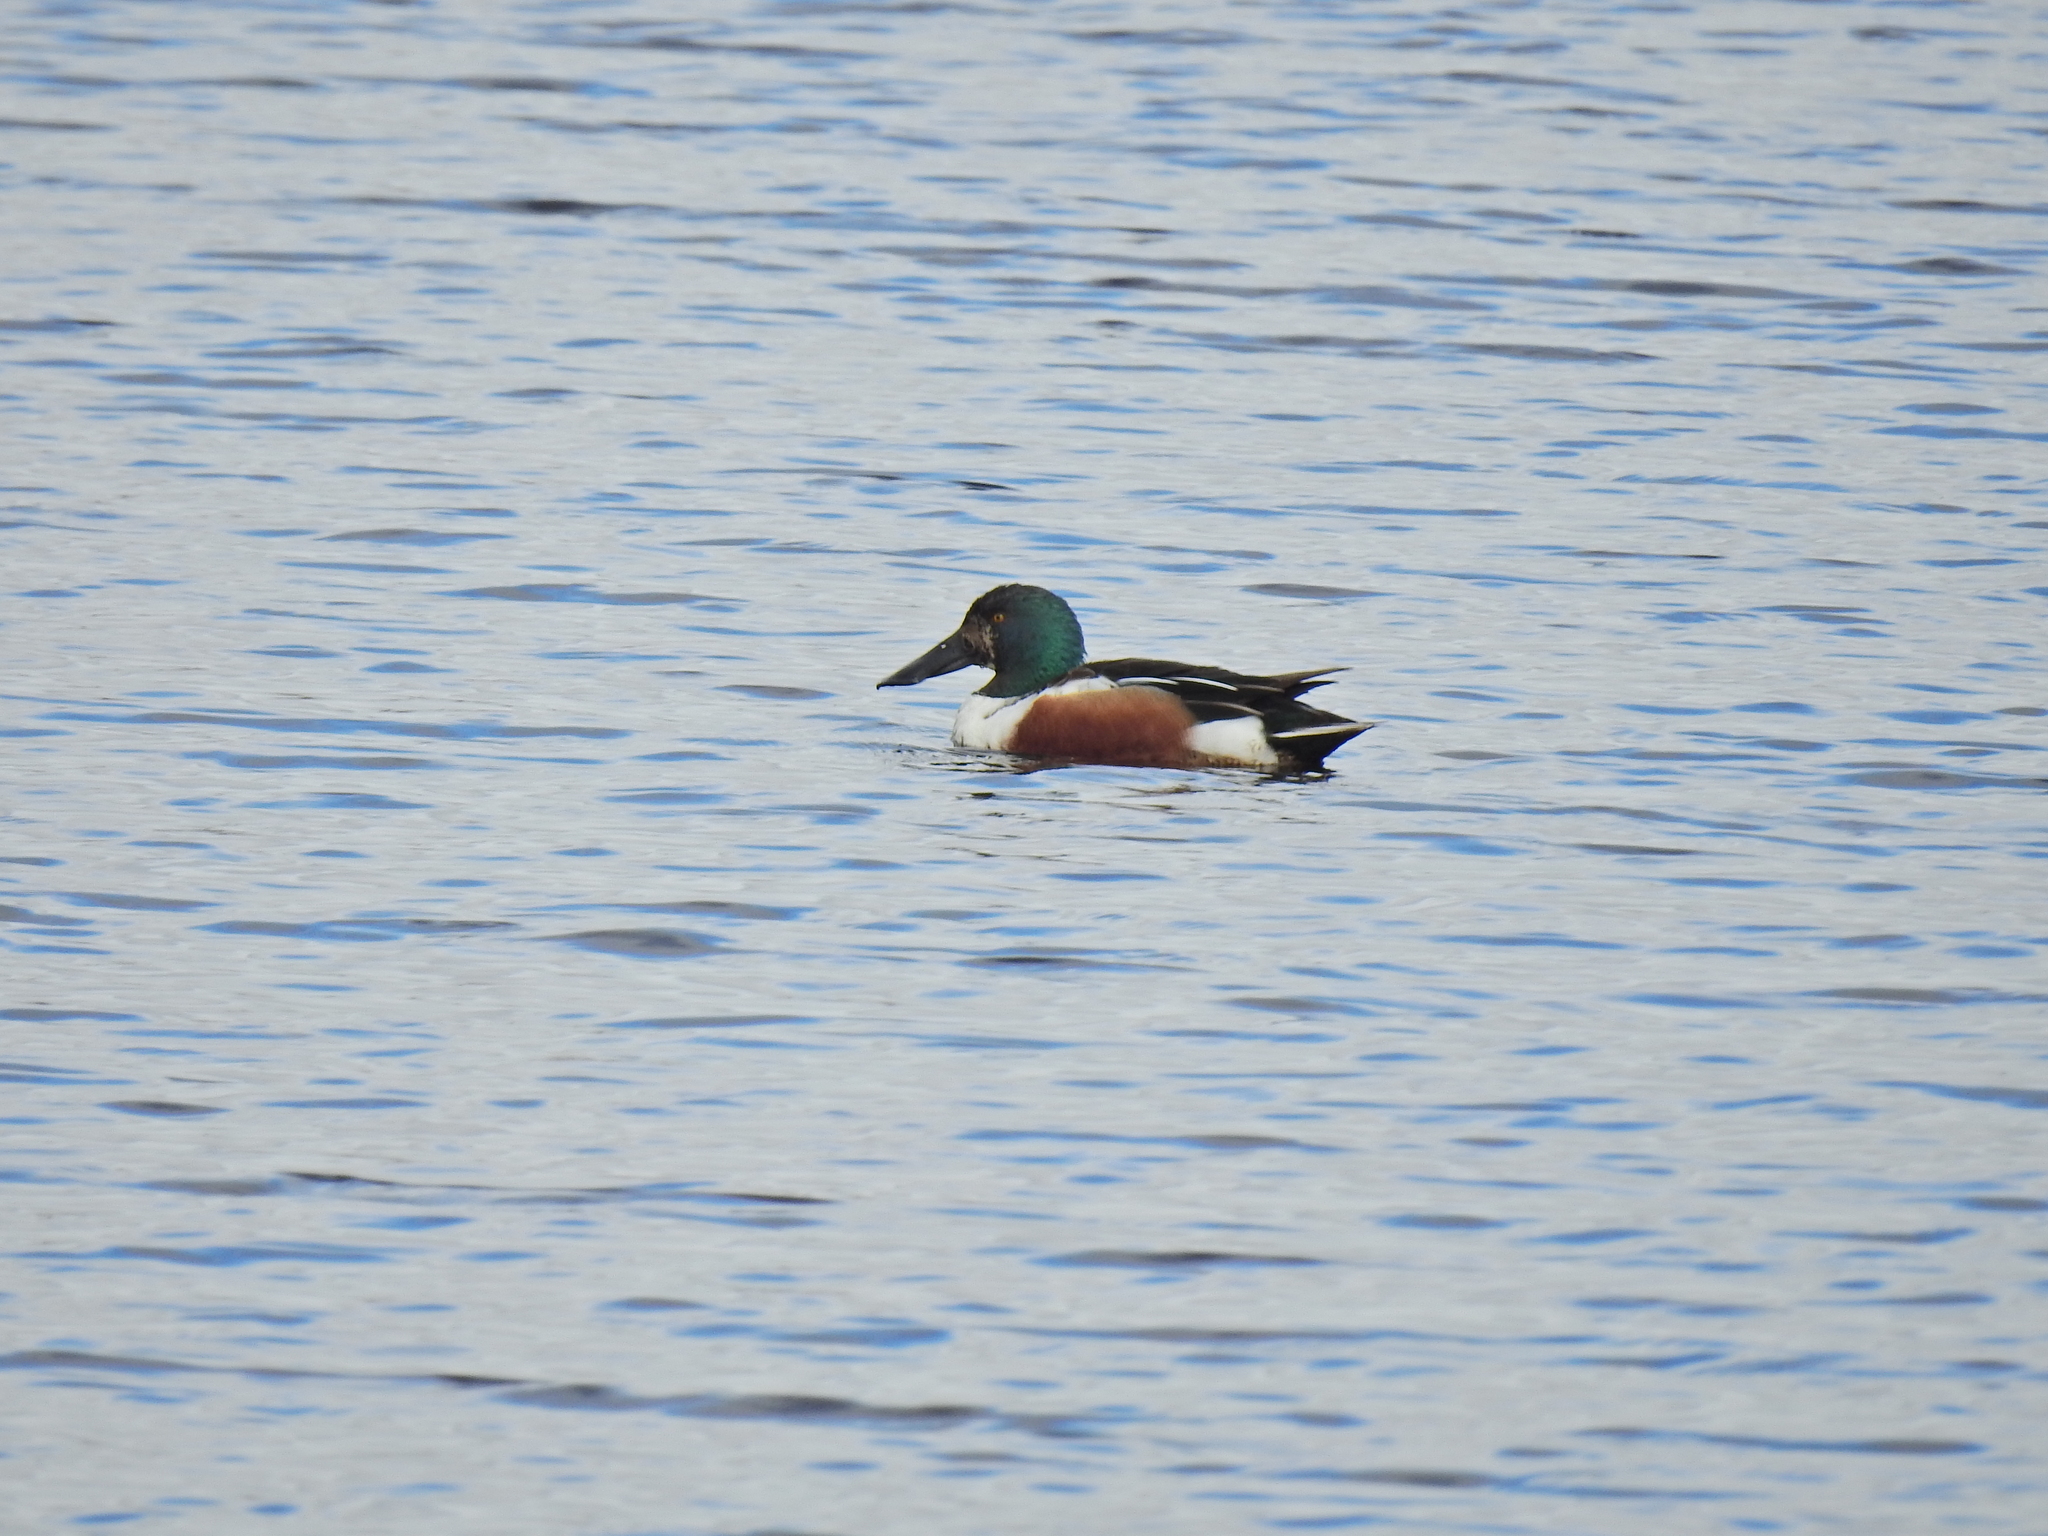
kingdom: Animalia
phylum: Chordata
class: Aves
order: Anseriformes
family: Anatidae
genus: Spatula
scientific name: Spatula clypeata
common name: Northern shoveler
